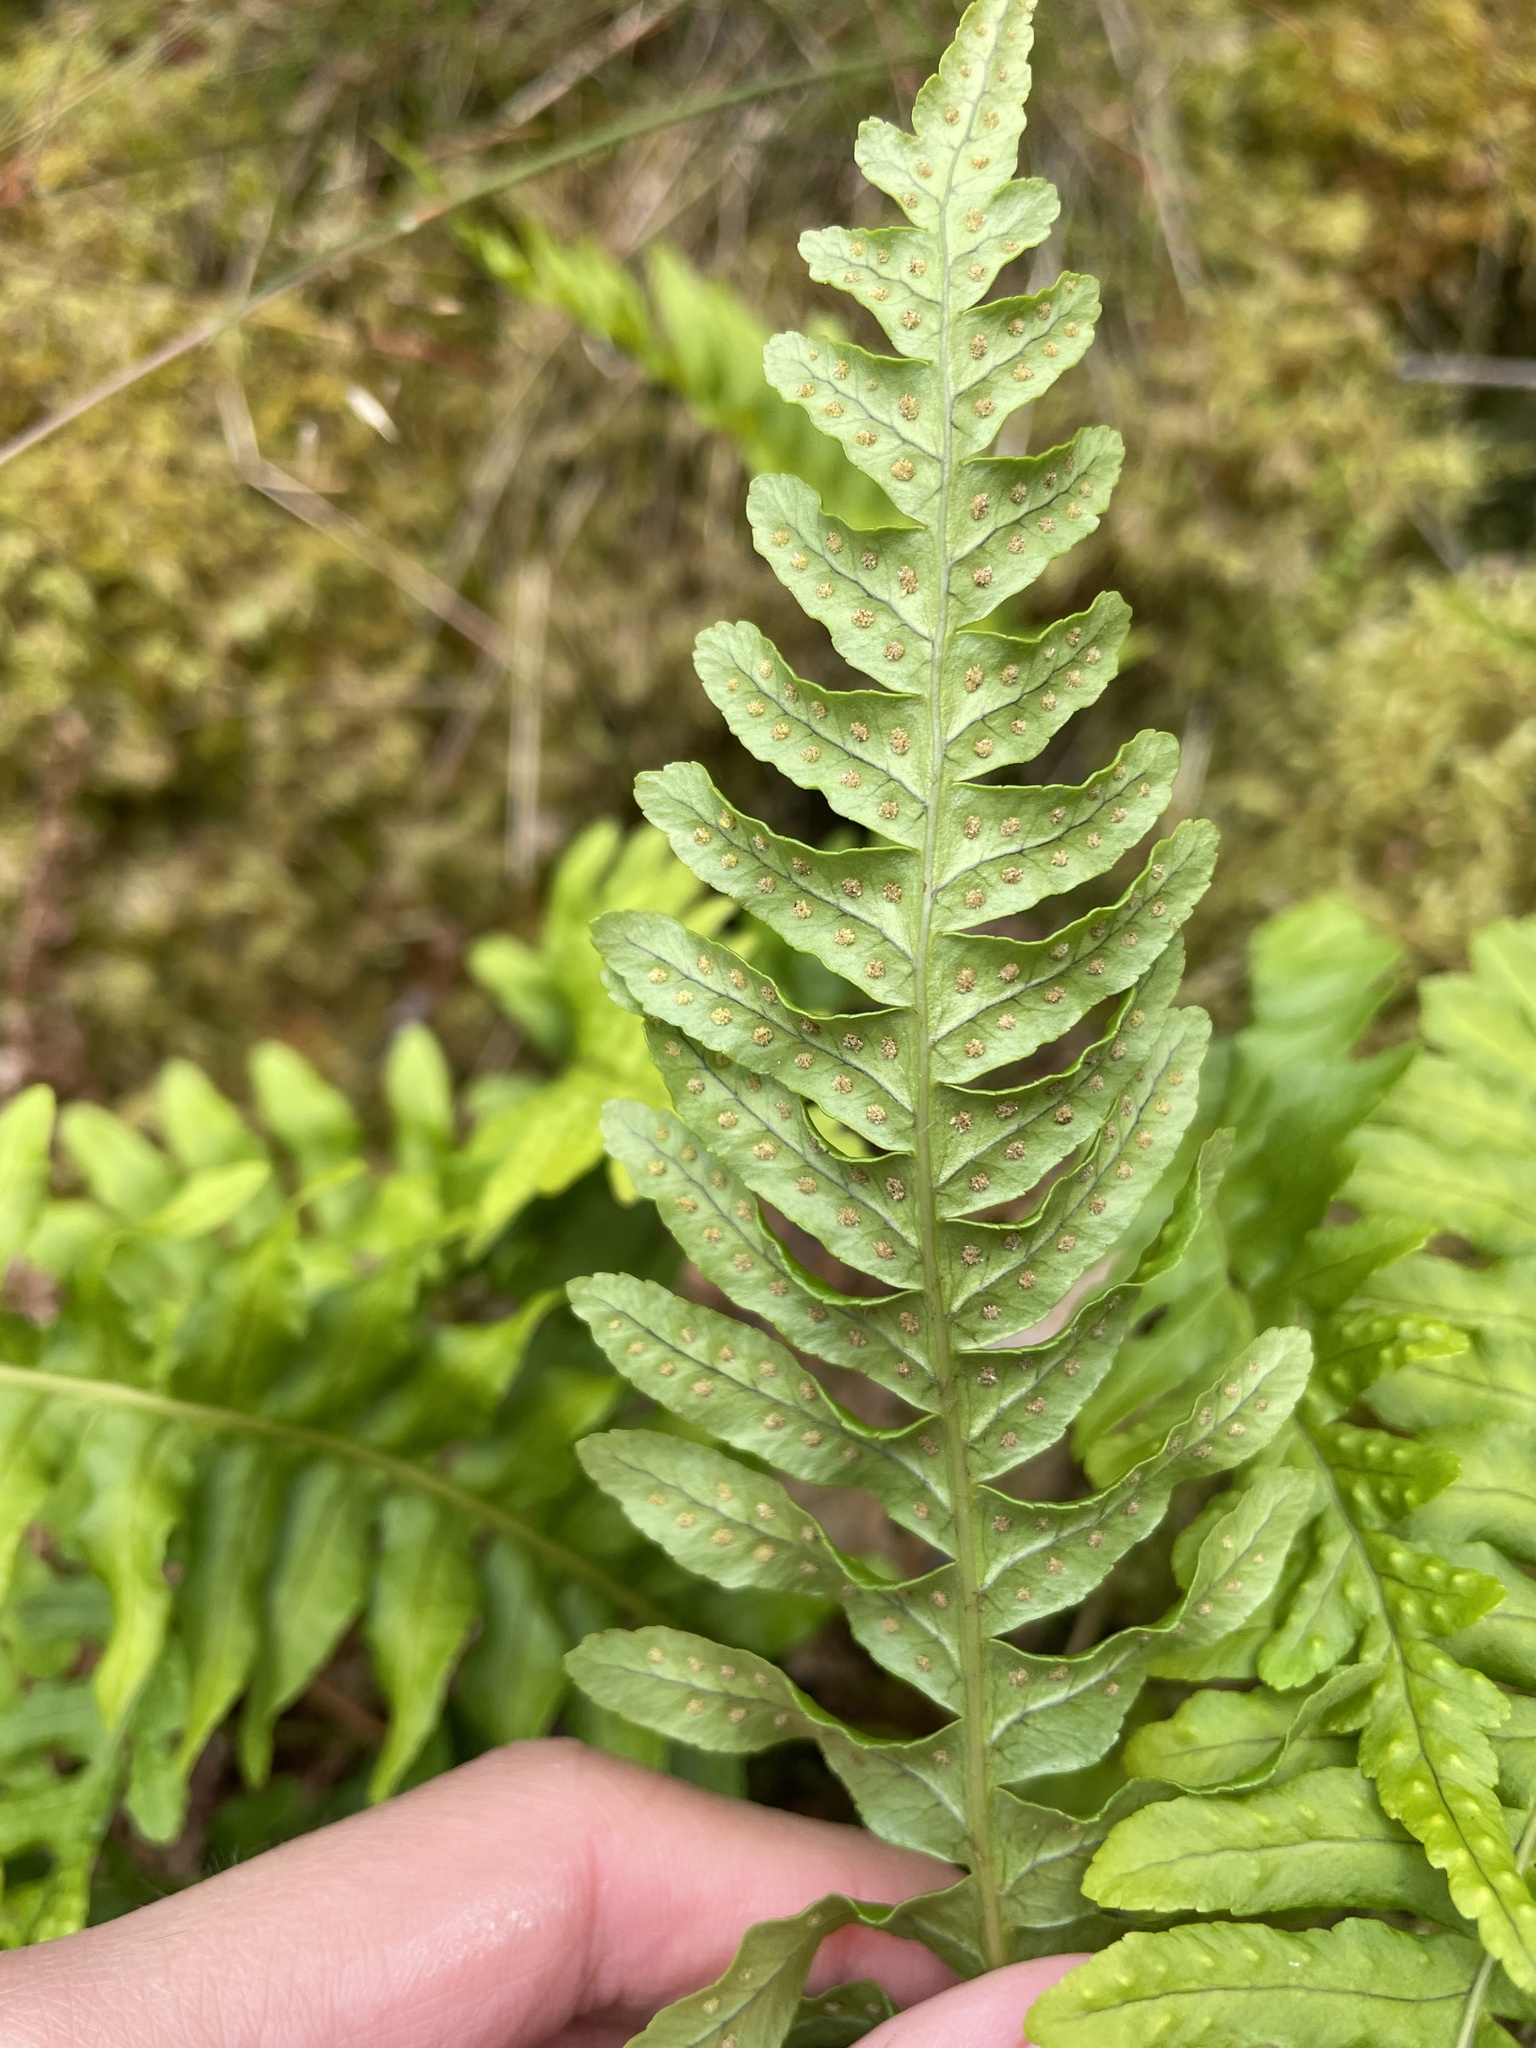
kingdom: Plantae
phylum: Tracheophyta
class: Polypodiopsida
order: Polypodiales
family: Polypodiaceae
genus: Polypodium
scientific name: Polypodium vulgare
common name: Common polypody
